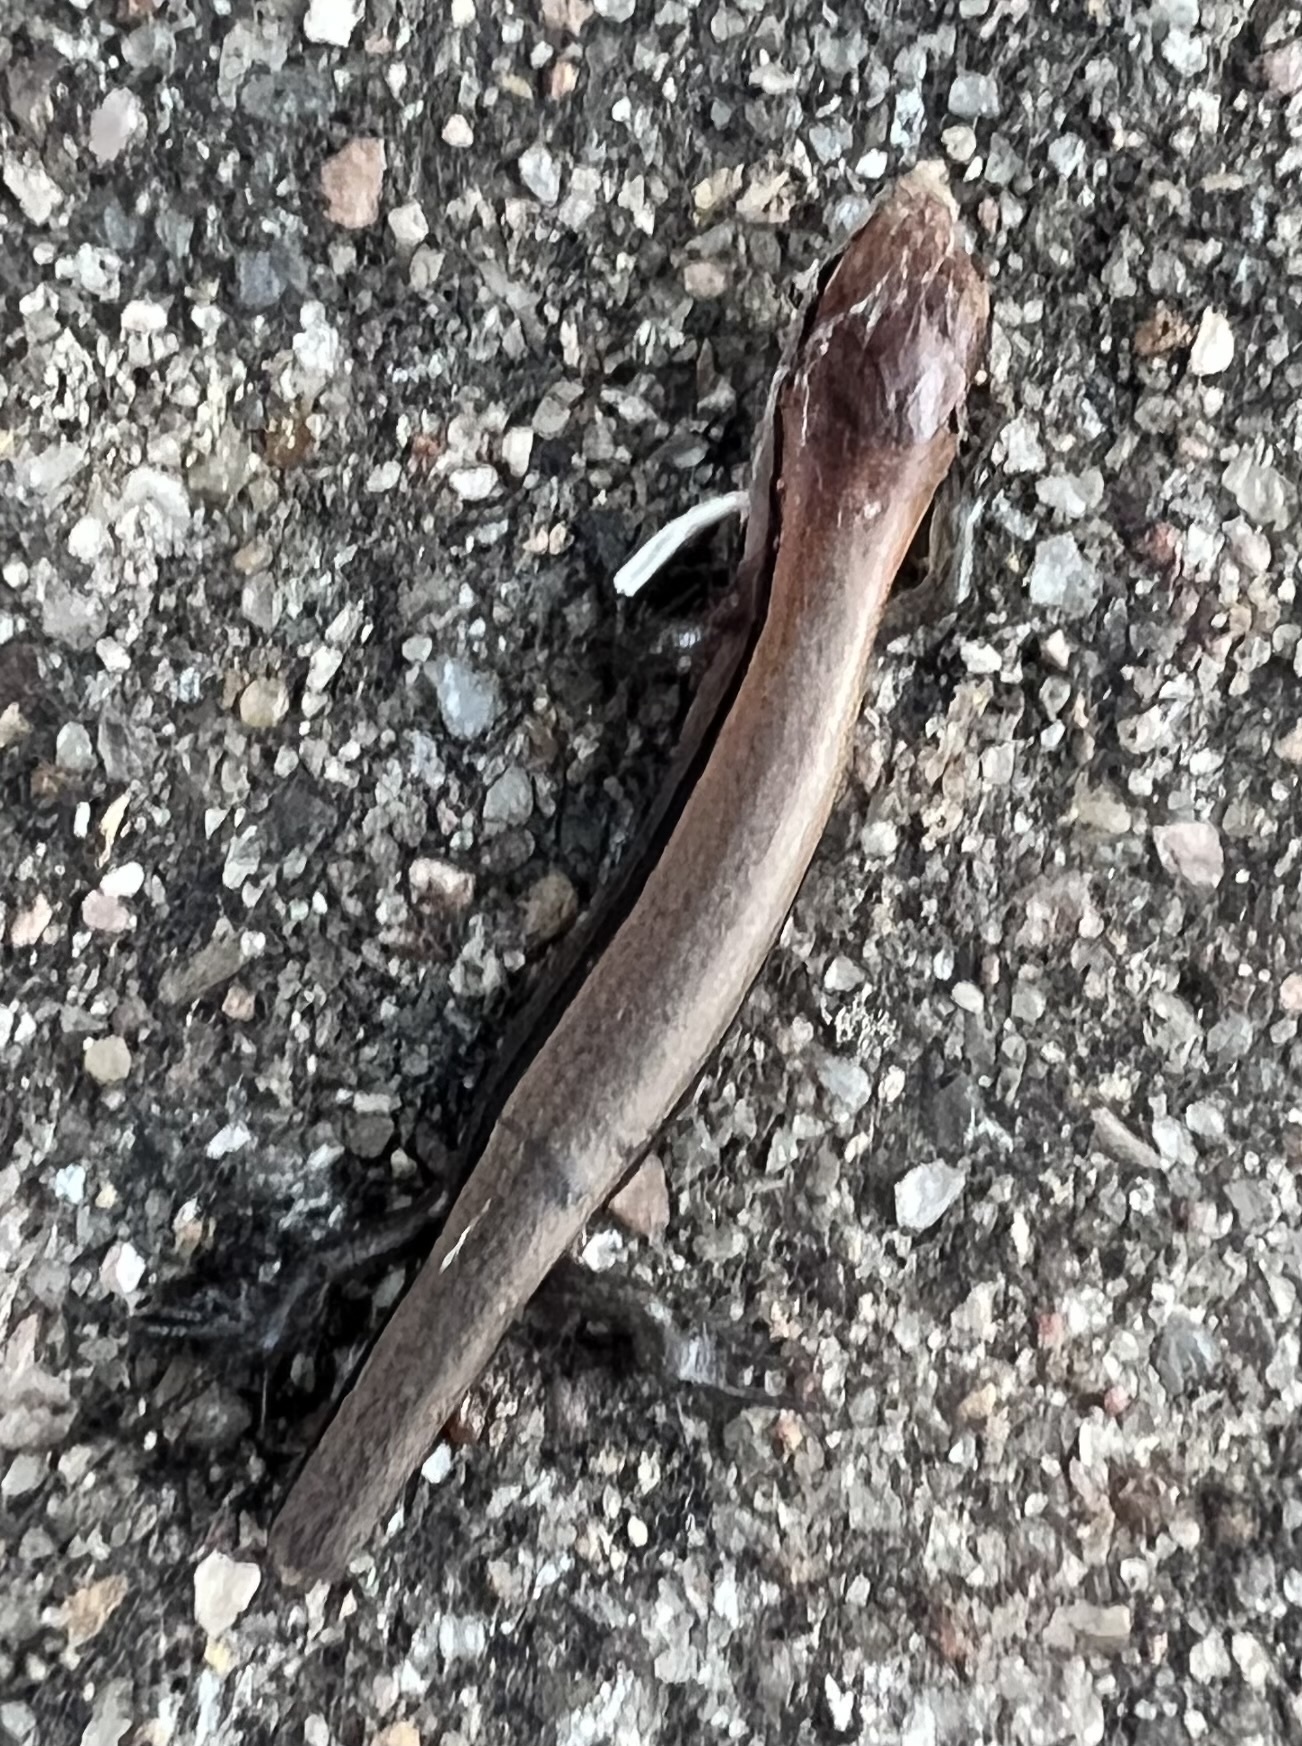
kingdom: Animalia
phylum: Chordata
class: Squamata
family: Scincidae
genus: Scincella
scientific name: Scincella lateralis
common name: Ground skink
